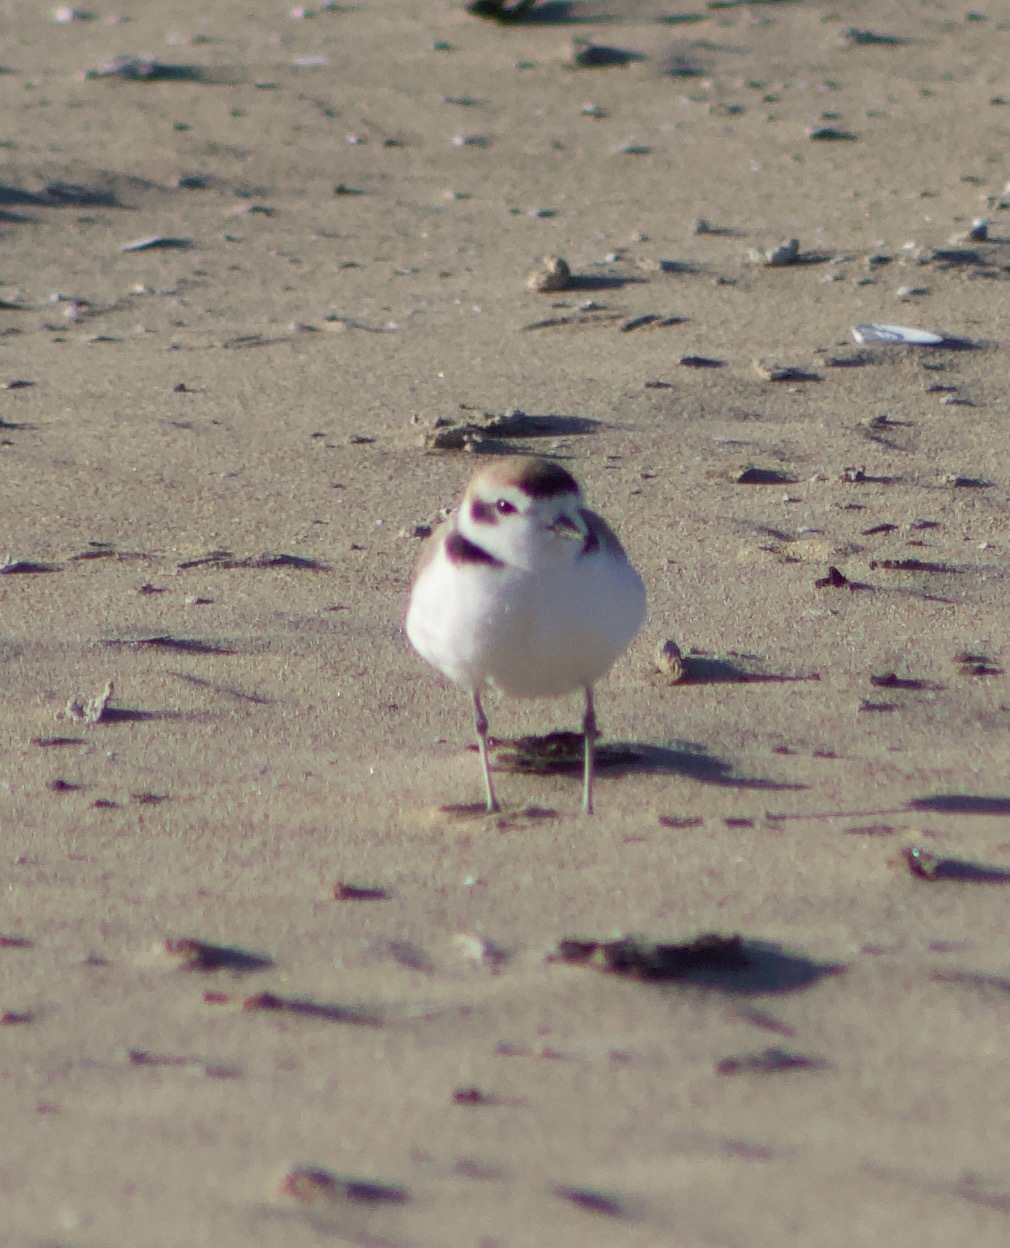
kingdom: Animalia
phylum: Chordata
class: Aves
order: Charadriiformes
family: Charadriidae
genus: Anarhynchus
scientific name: Anarhynchus
